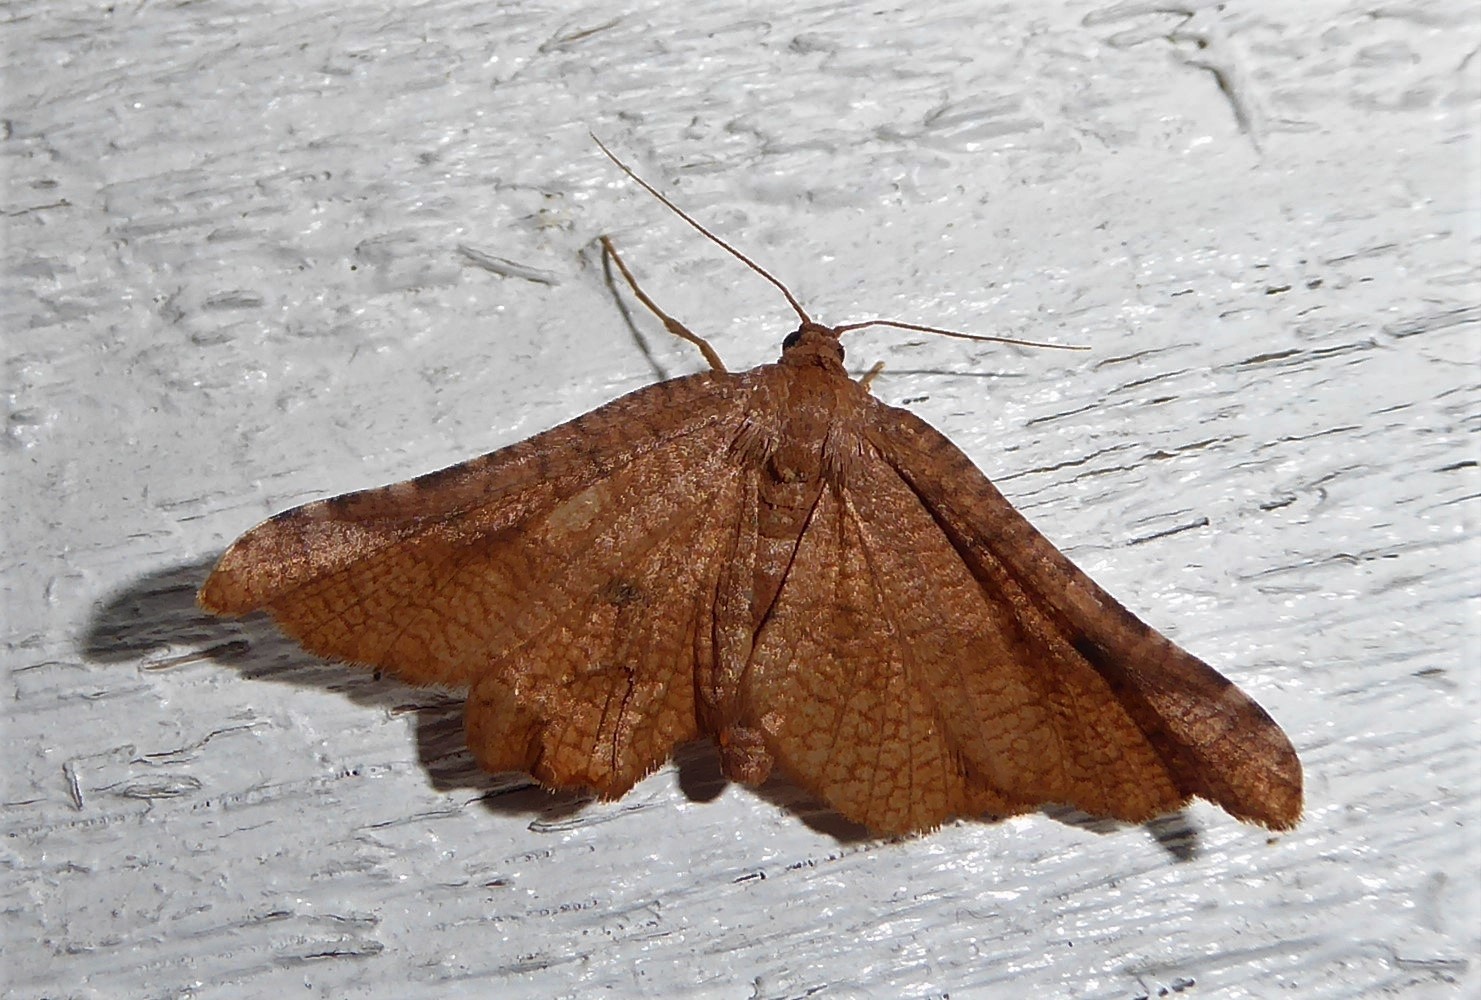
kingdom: Animalia
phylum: Arthropoda
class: Insecta
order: Lepidoptera
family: Thyrididae
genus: Morova
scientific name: Morova subfasciata
